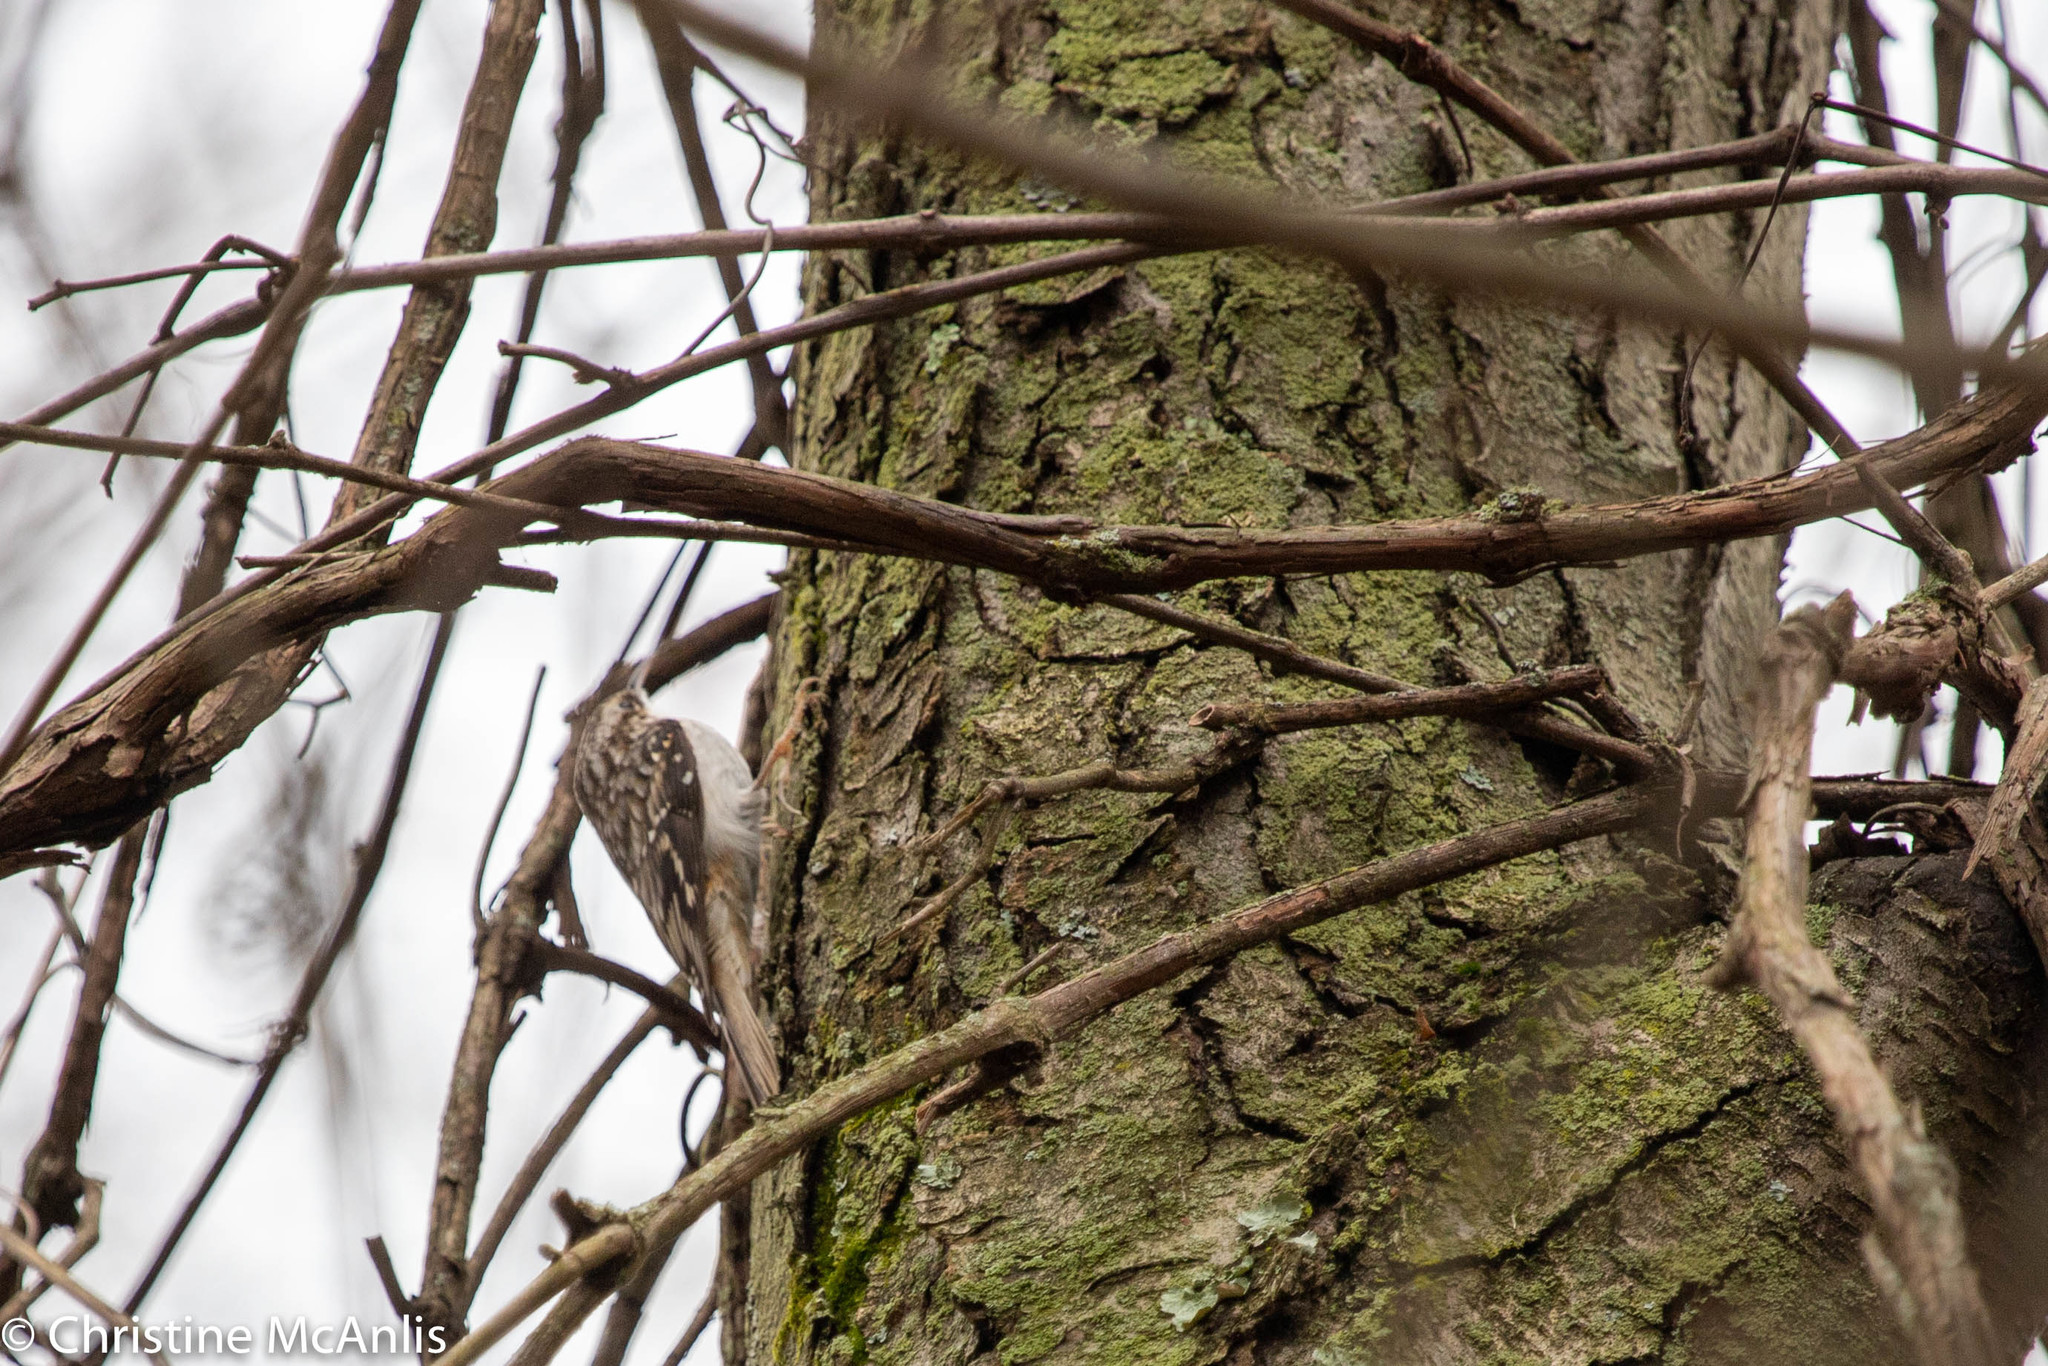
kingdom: Animalia
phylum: Chordata
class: Aves
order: Passeriformes
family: Certhiidae
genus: Certhia
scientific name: Certhia americana
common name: Brown creeper
